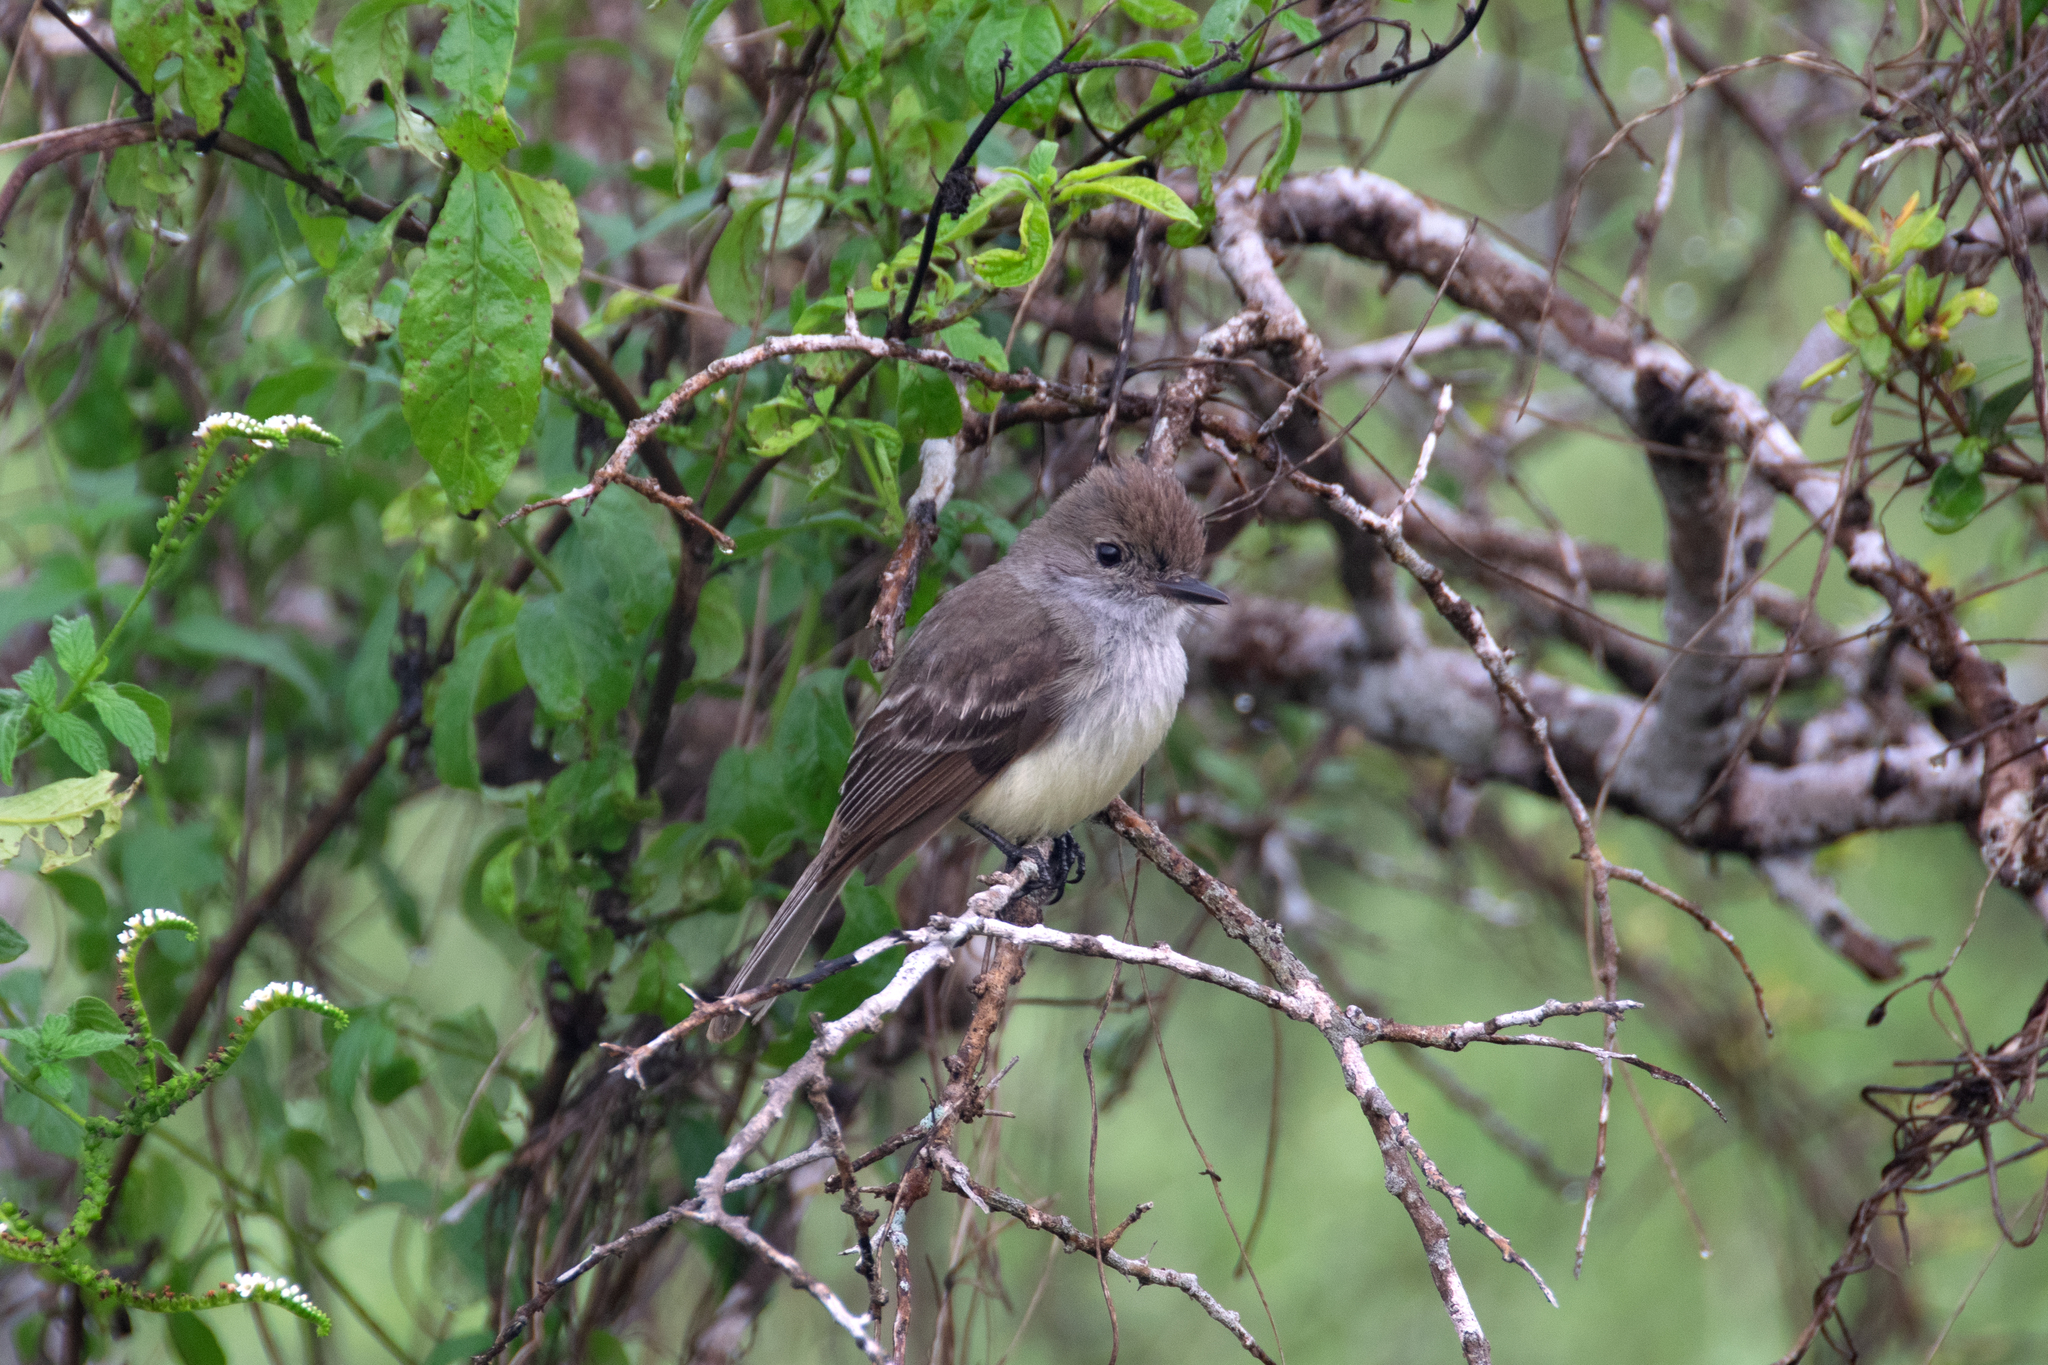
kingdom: Animalia
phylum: Chordata
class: Aves
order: Passeriformes
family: Tyrannidae
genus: Myiarchus
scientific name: Myiarchus magnirostris
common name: Galapagos flycatcher
